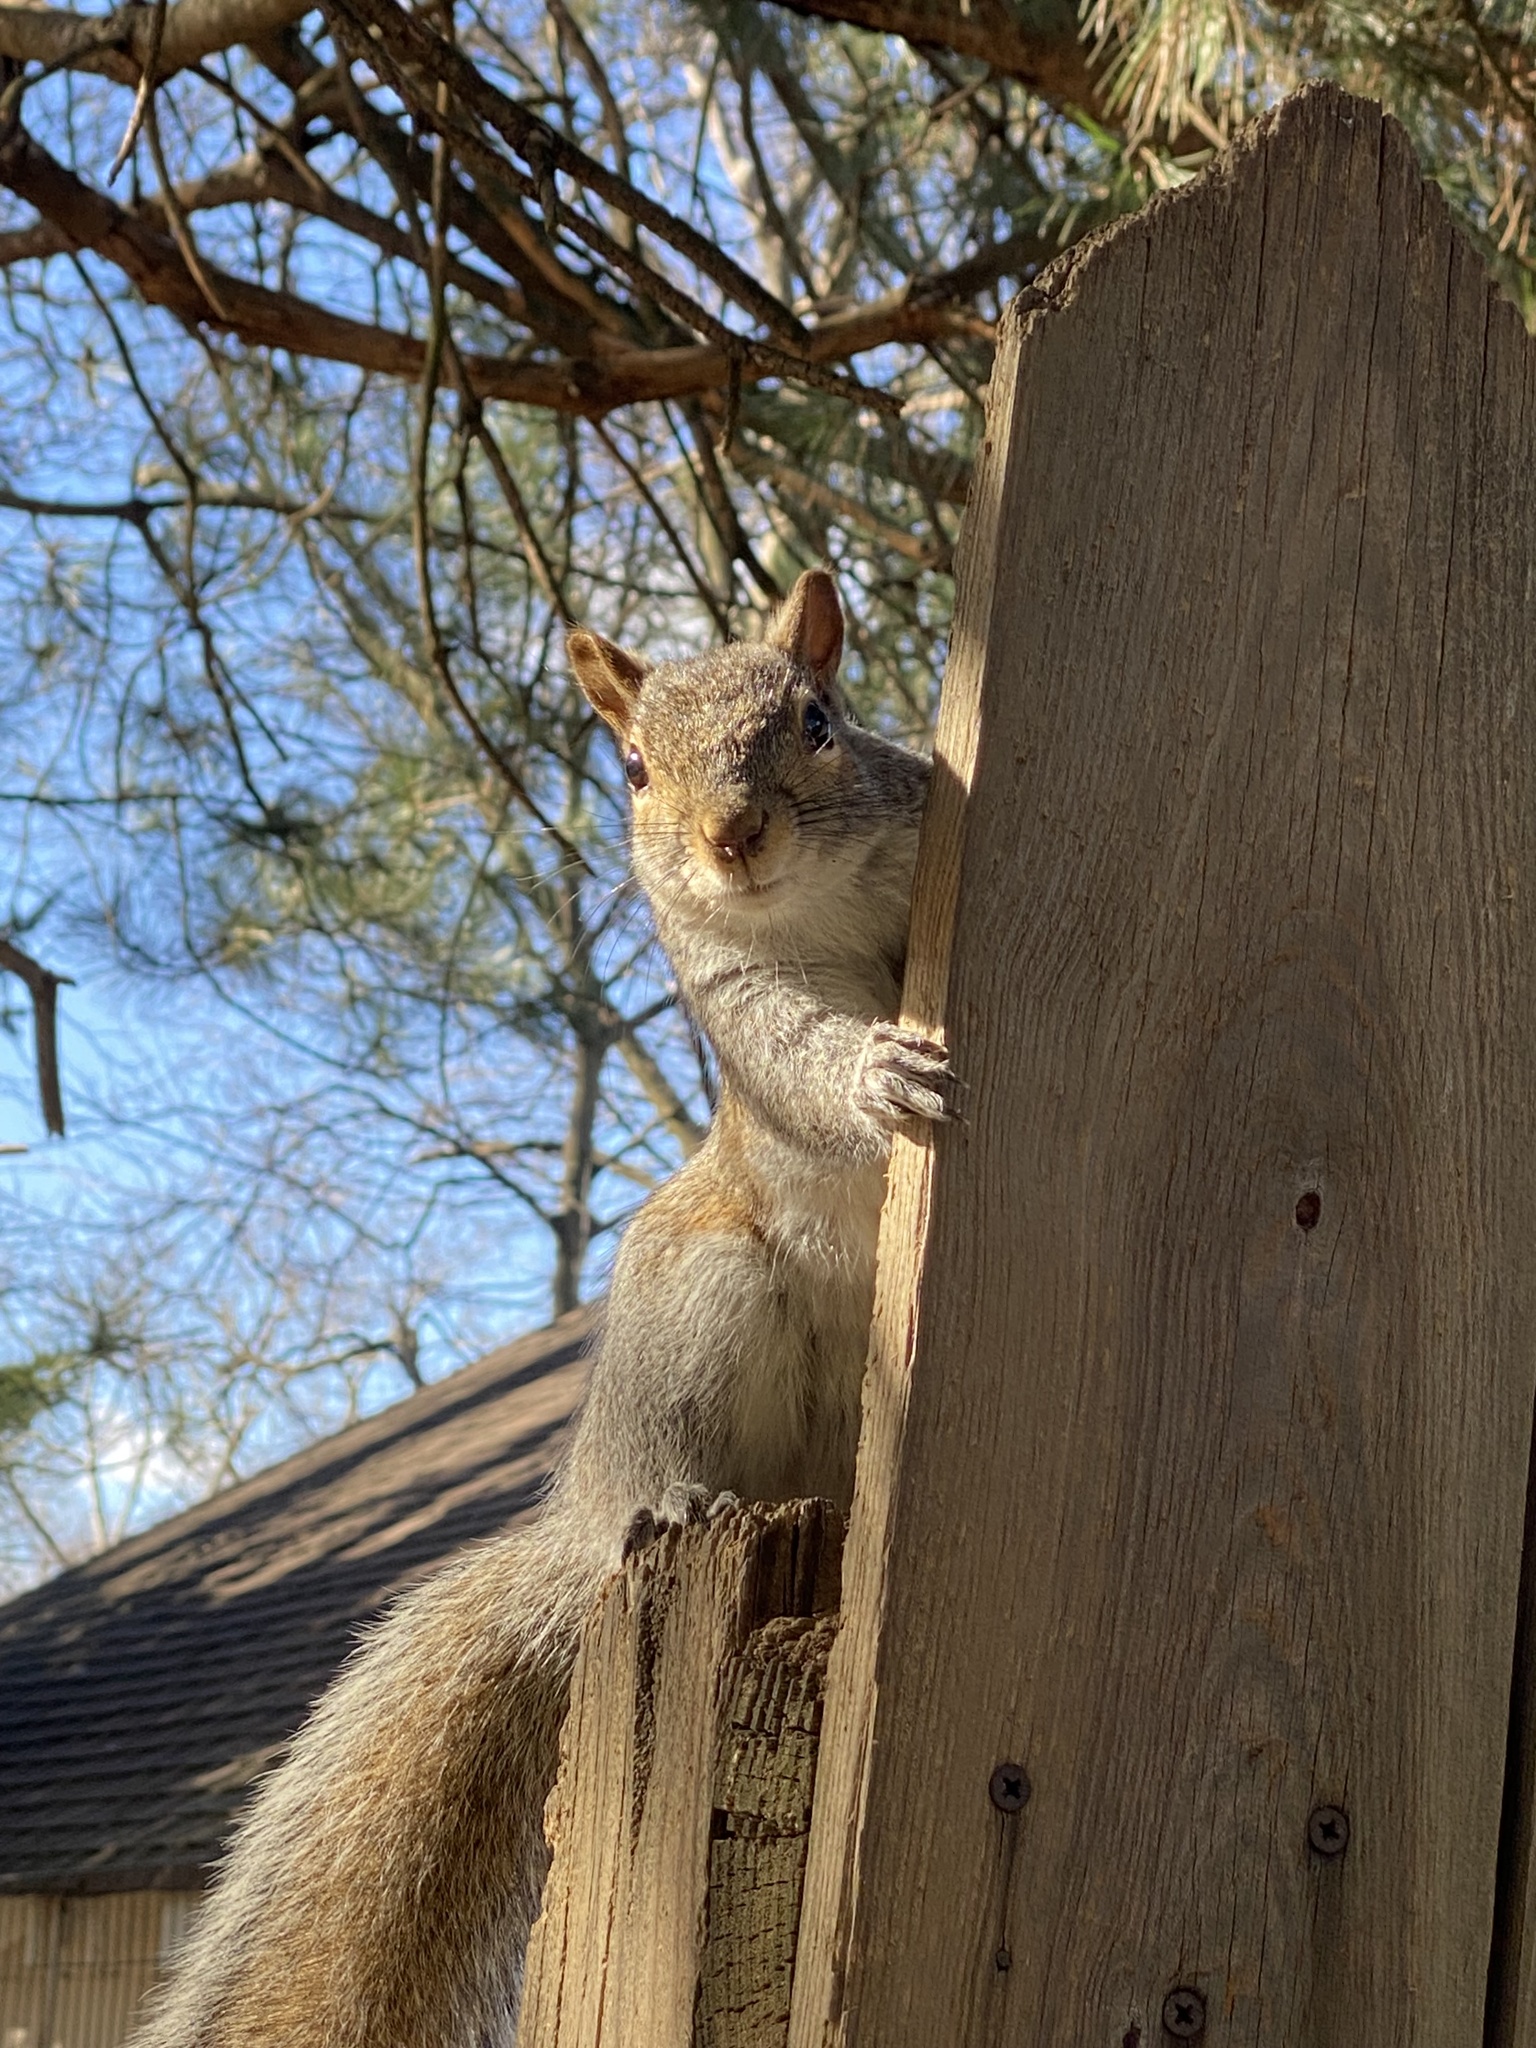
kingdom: Animalia
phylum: Chordata
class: Mammalia
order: Rodentia
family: Sciuridae
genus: Sciurus
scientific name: Sciurus carolinensis
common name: Eastern gray squirrel
